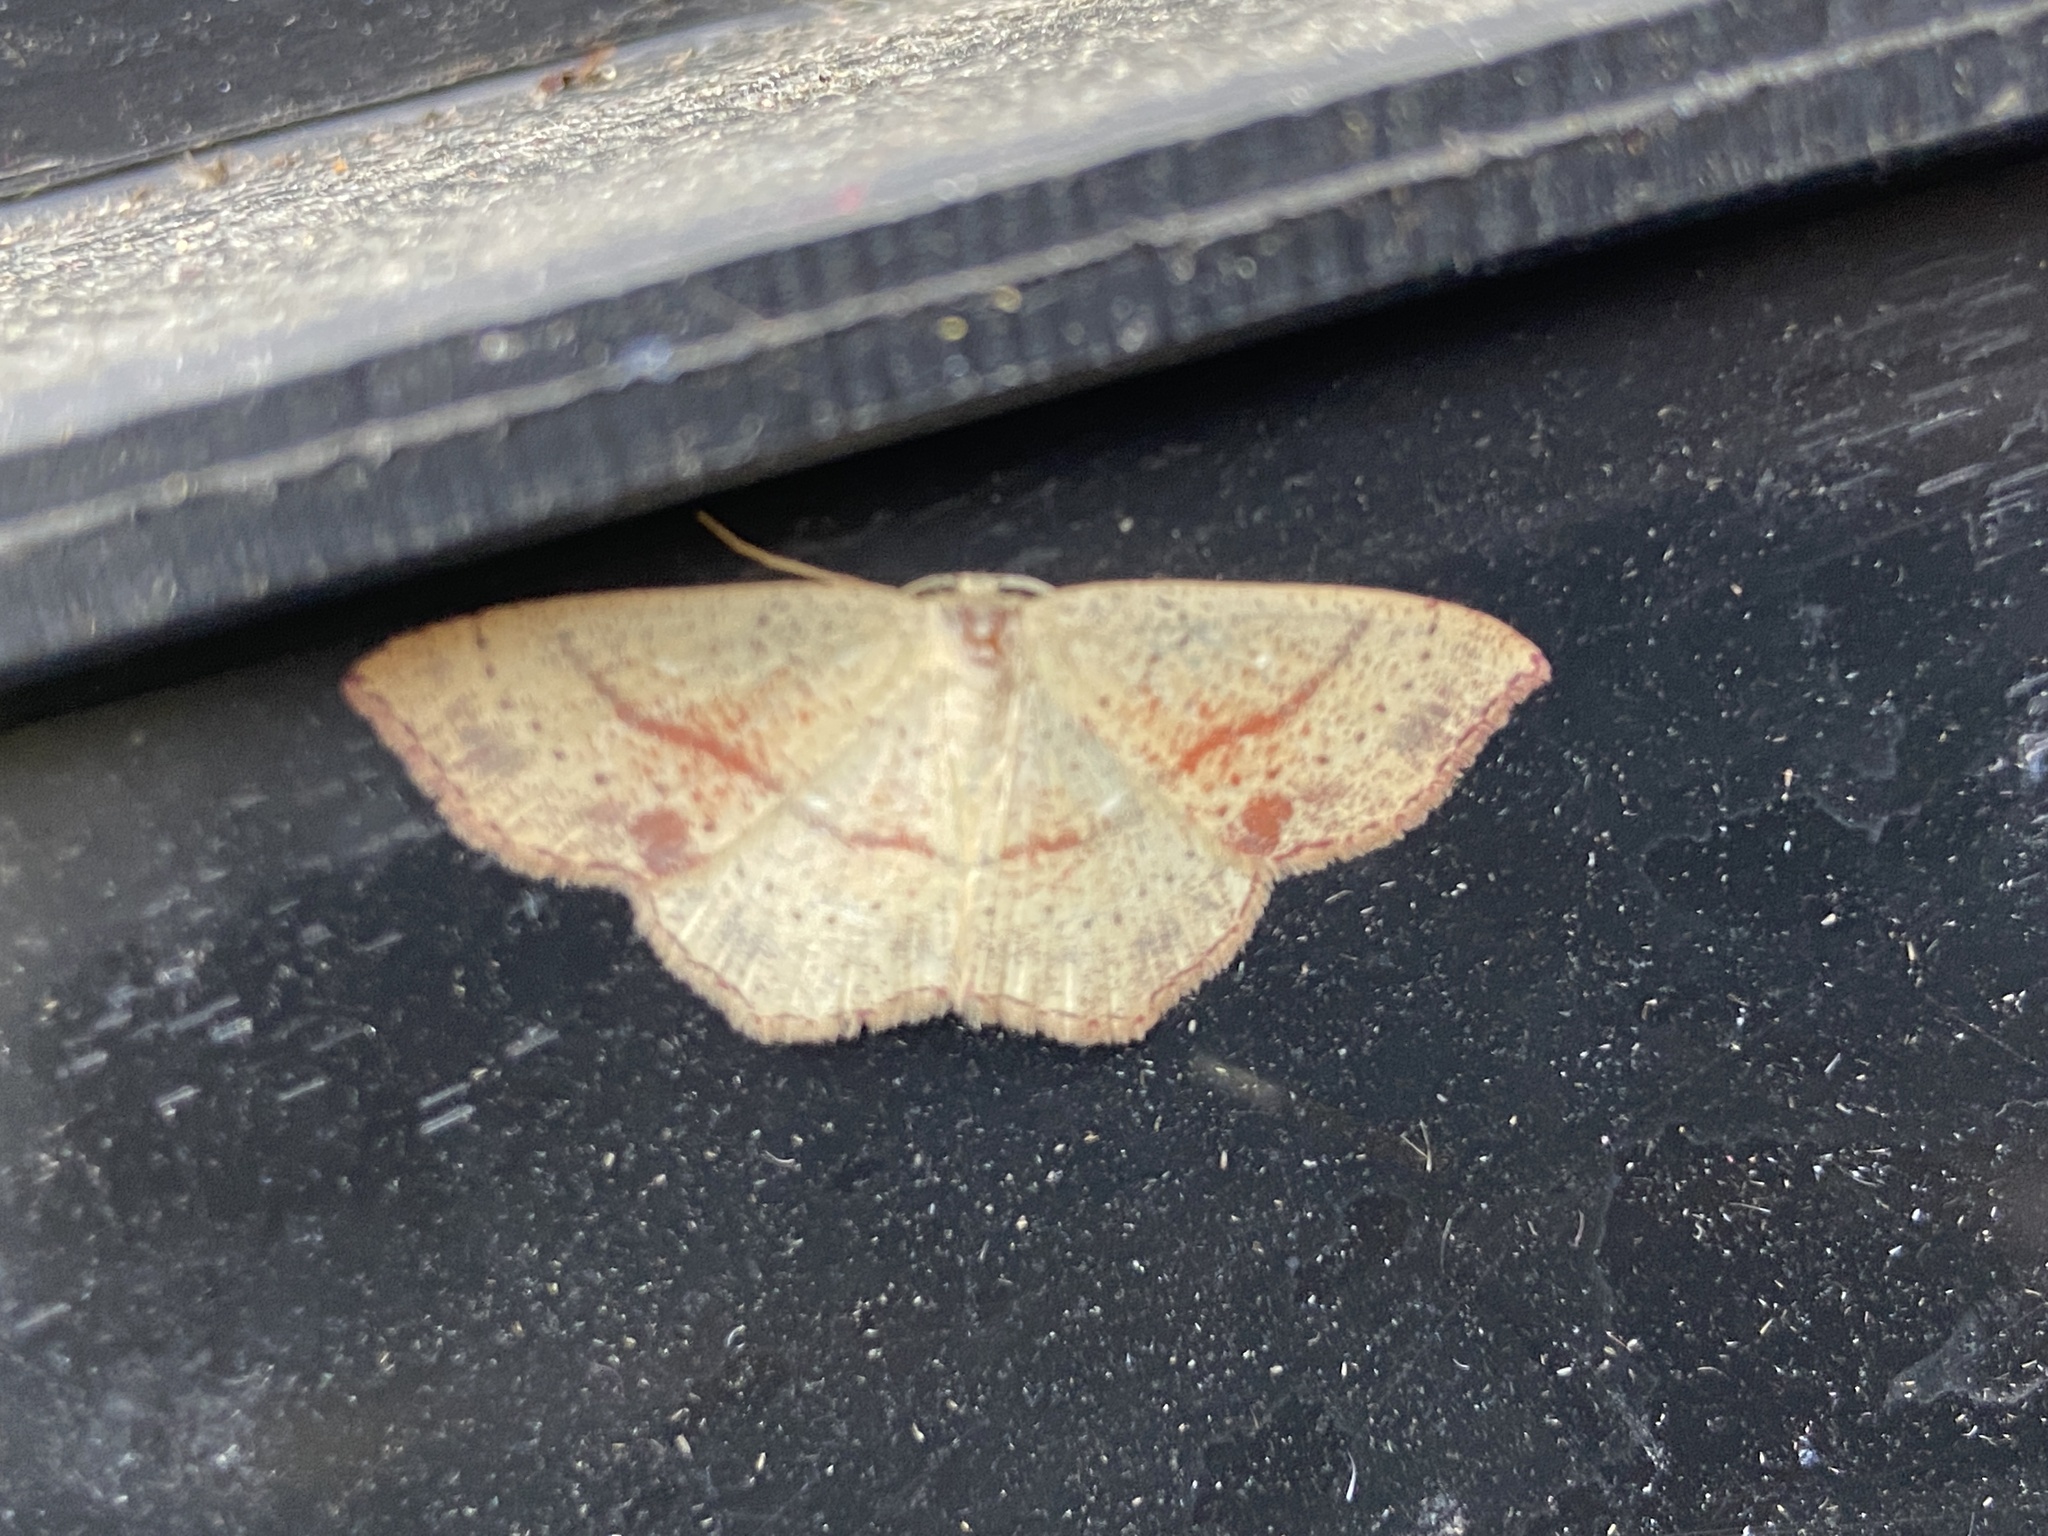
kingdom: Animalia
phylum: Arthropoda
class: Insecta
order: Lepidoptera
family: Geometridae
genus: Cyclophora
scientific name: Cyclophora punctaria
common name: Maiden's blush
